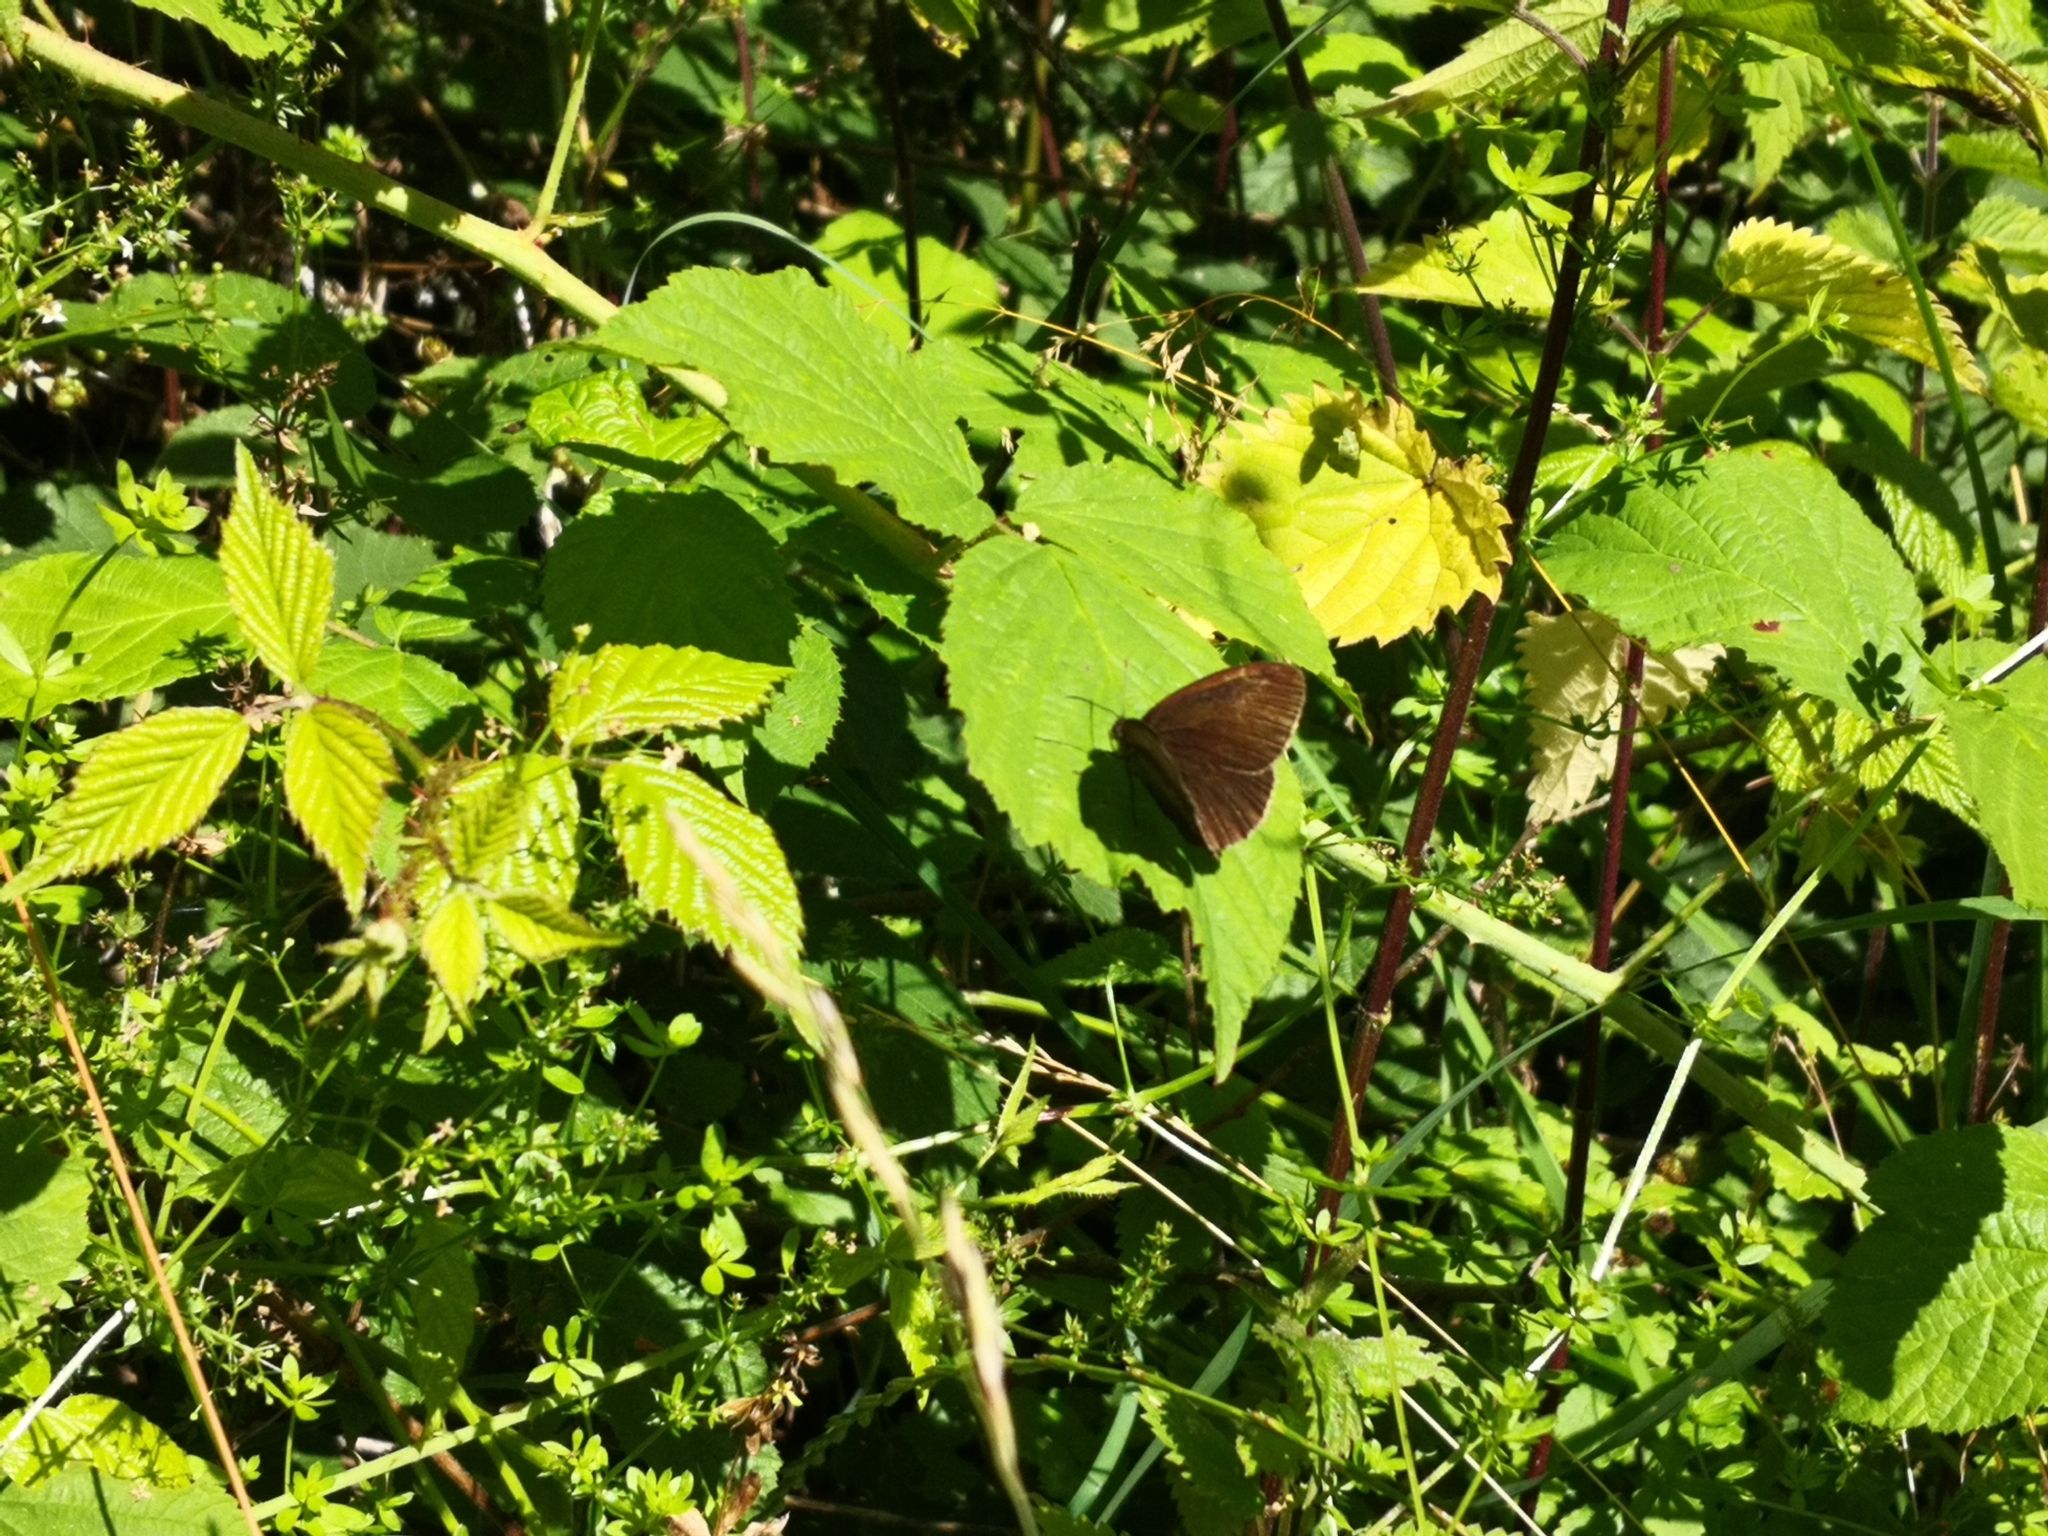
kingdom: Animalia
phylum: Arthropoda
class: Insecta
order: Lepidoptera
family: Nymphalidae
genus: Aphantopus
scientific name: Aphantopus hyperantus
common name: Ringlet
